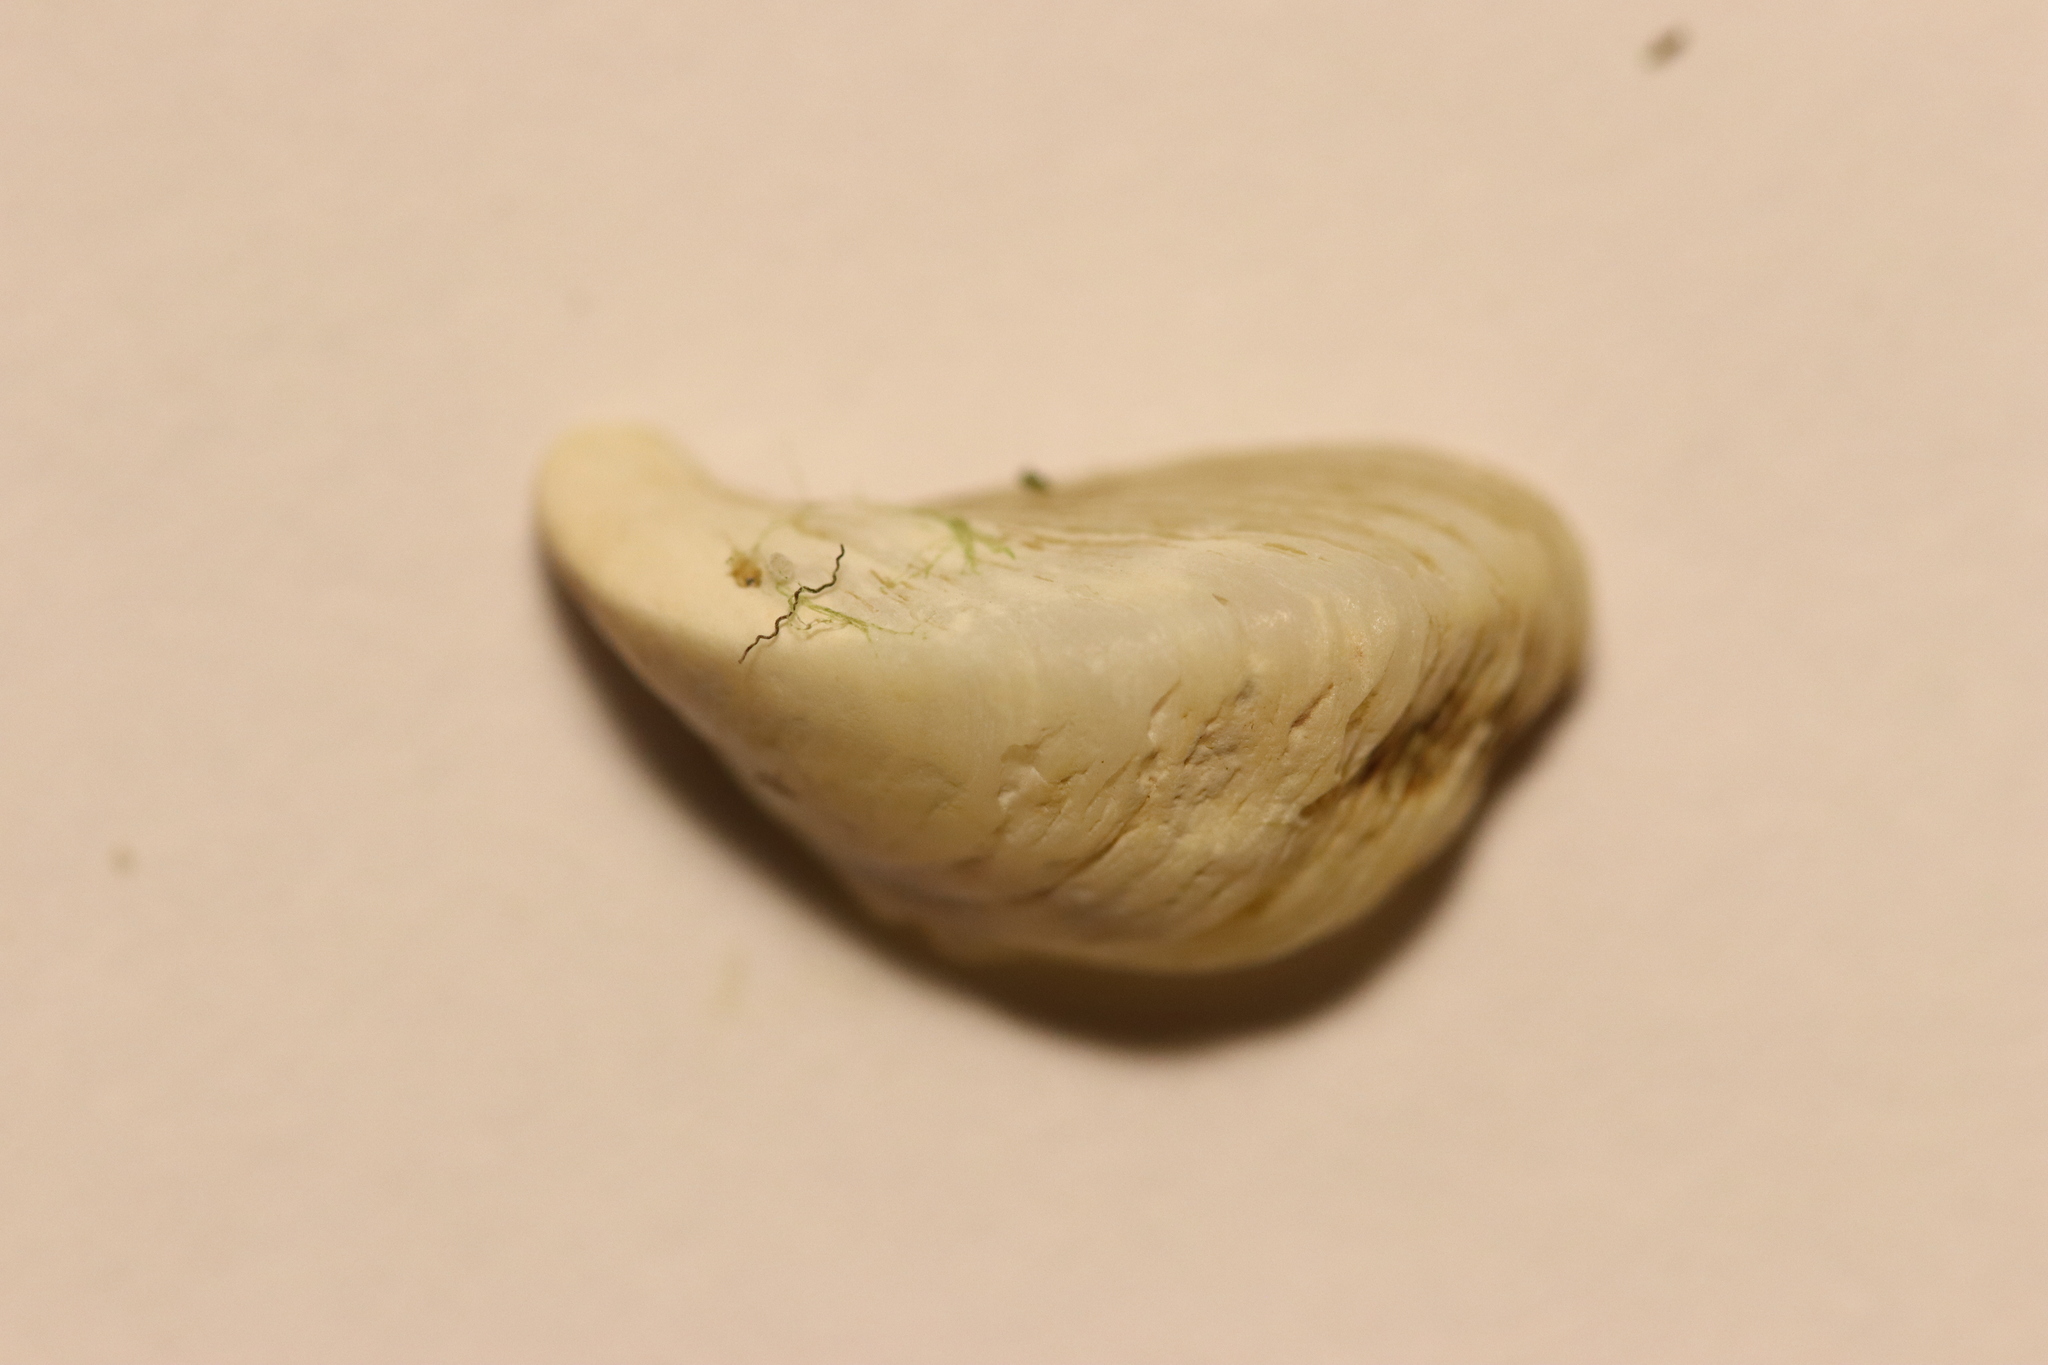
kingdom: Animalia
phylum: Mollusca
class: Bivalvia
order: Myida
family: Dreissenidae
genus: Dreissena
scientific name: Dreissena polymorpha
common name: Zebra mussel
